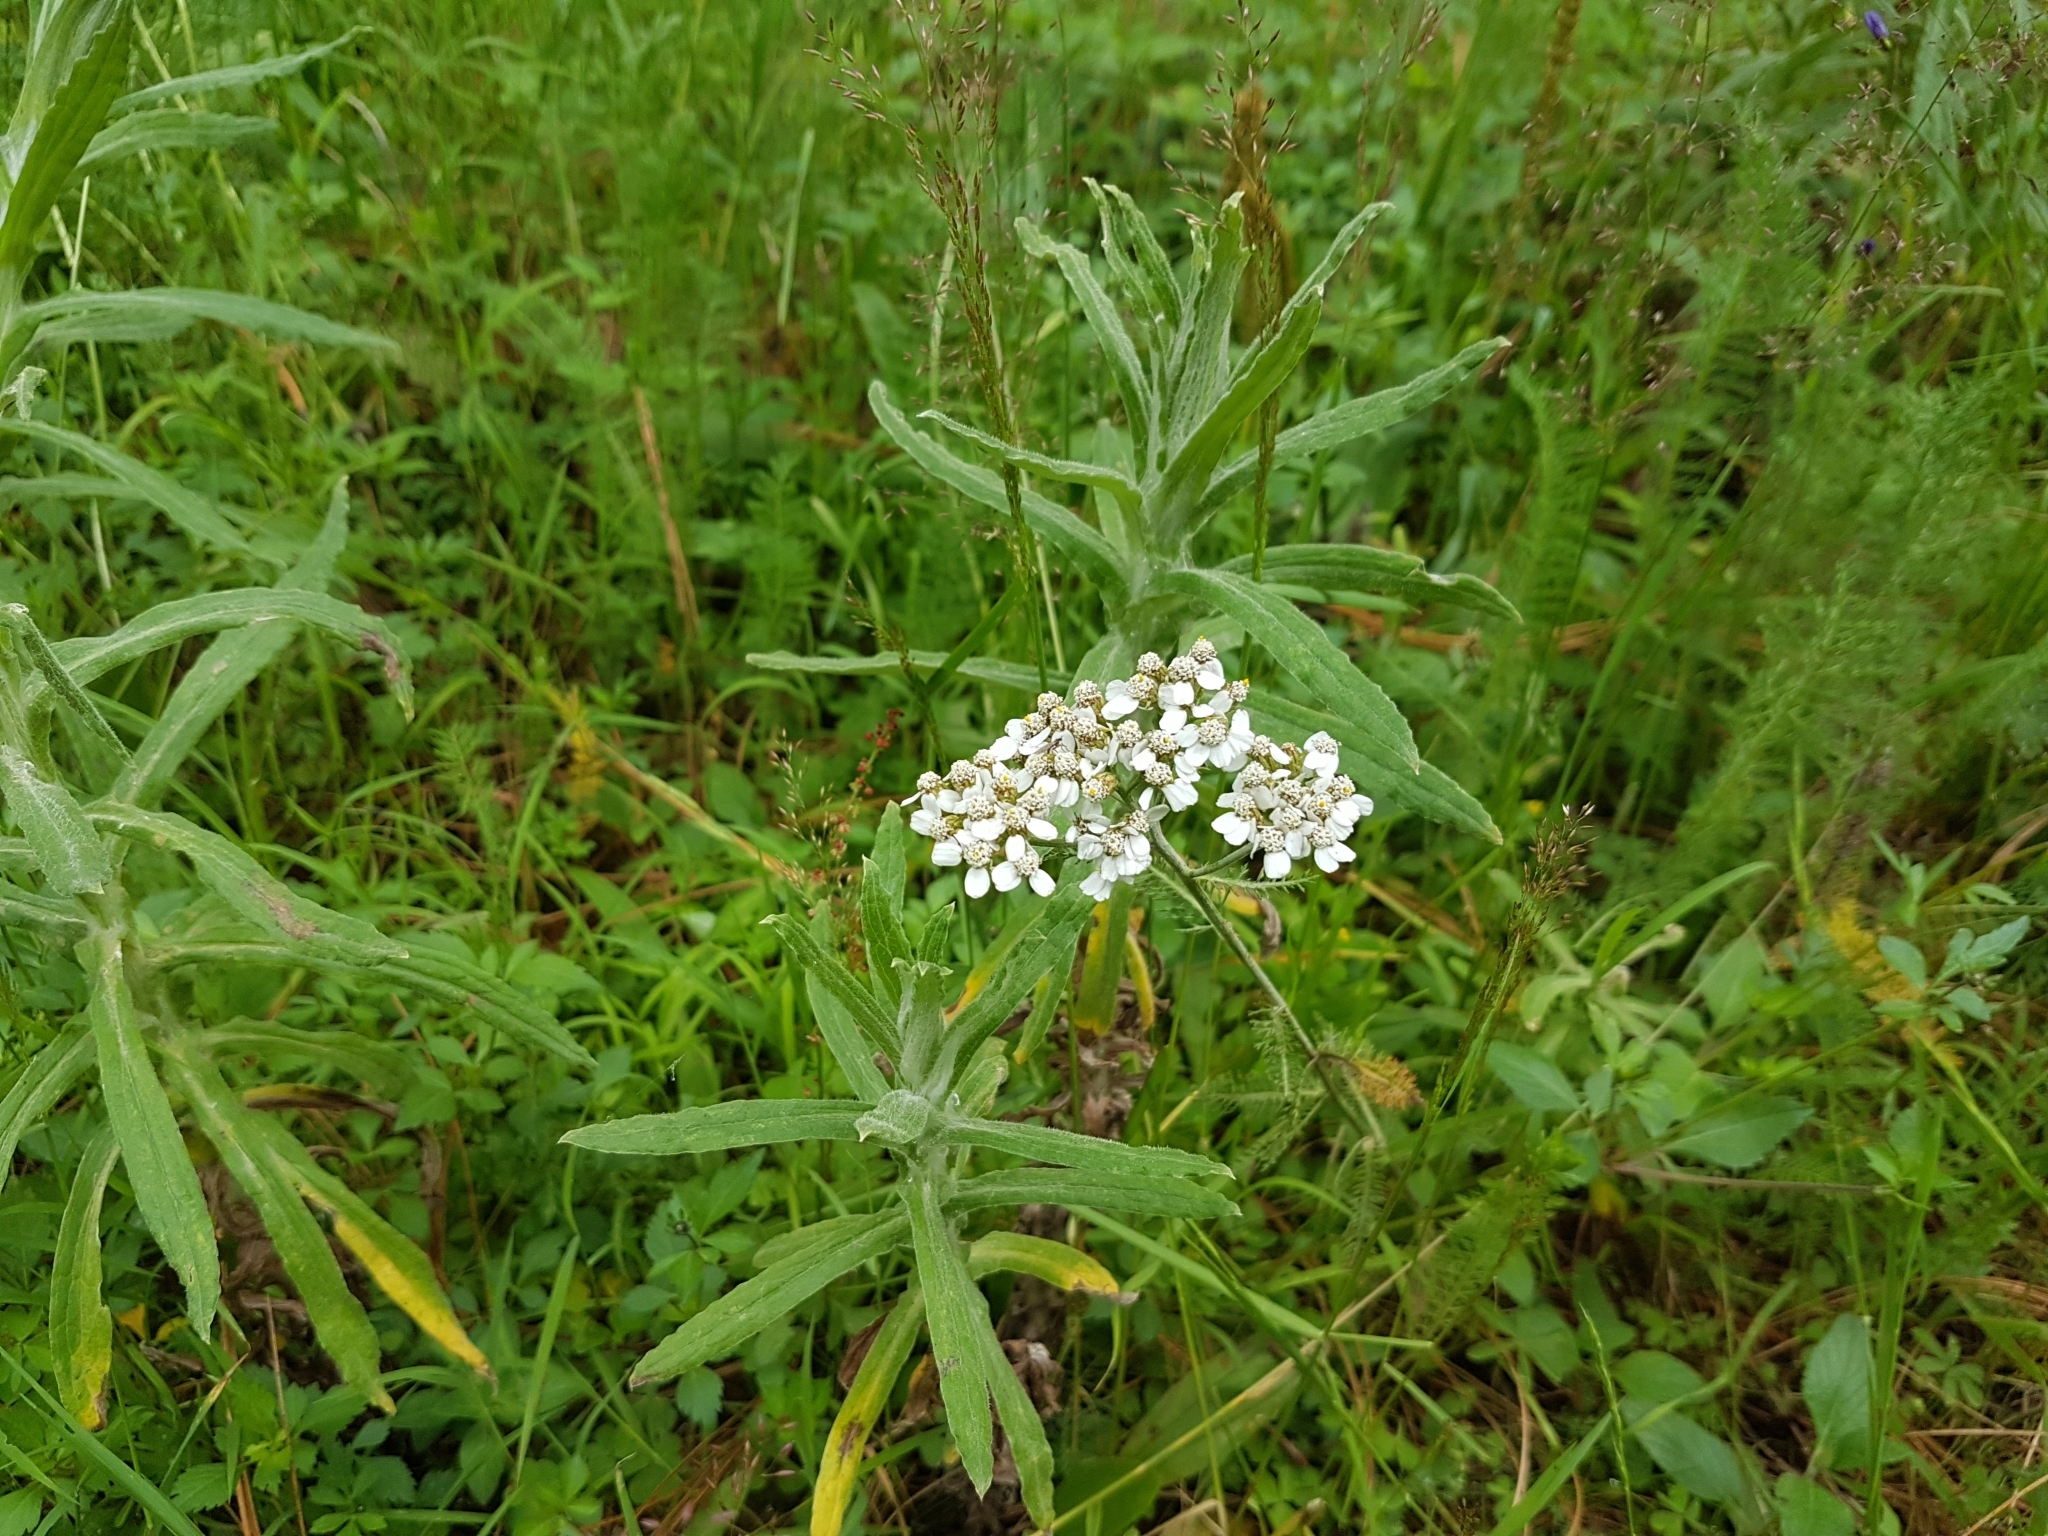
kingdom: Plantae
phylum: Tracheophyta
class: Magnoliopsida
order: Asterales
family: Asteraceae
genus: Achillea
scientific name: Achillea millefolium
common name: Yarrow
